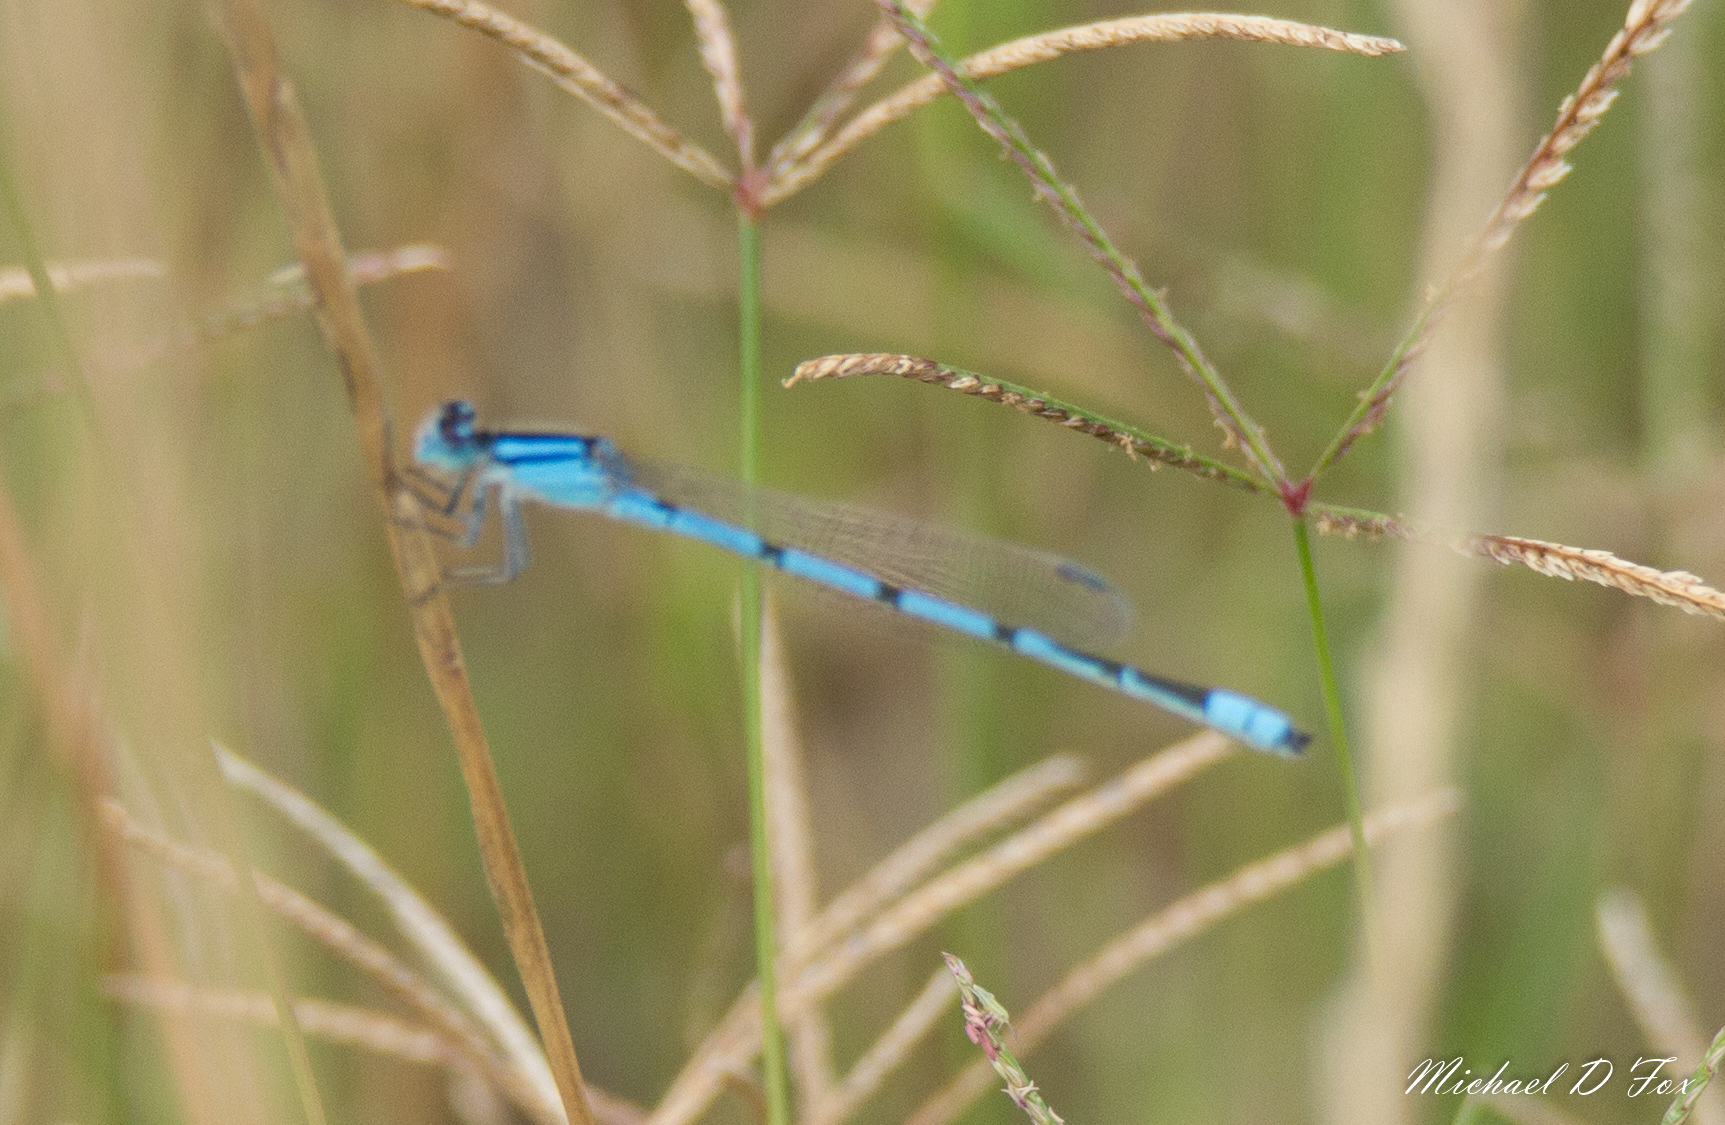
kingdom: Animalia
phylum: Arthropoda
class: Insecta
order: Odonata
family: Coenagrionidae
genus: Enallagma
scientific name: Enallagma civile
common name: Damselfly
